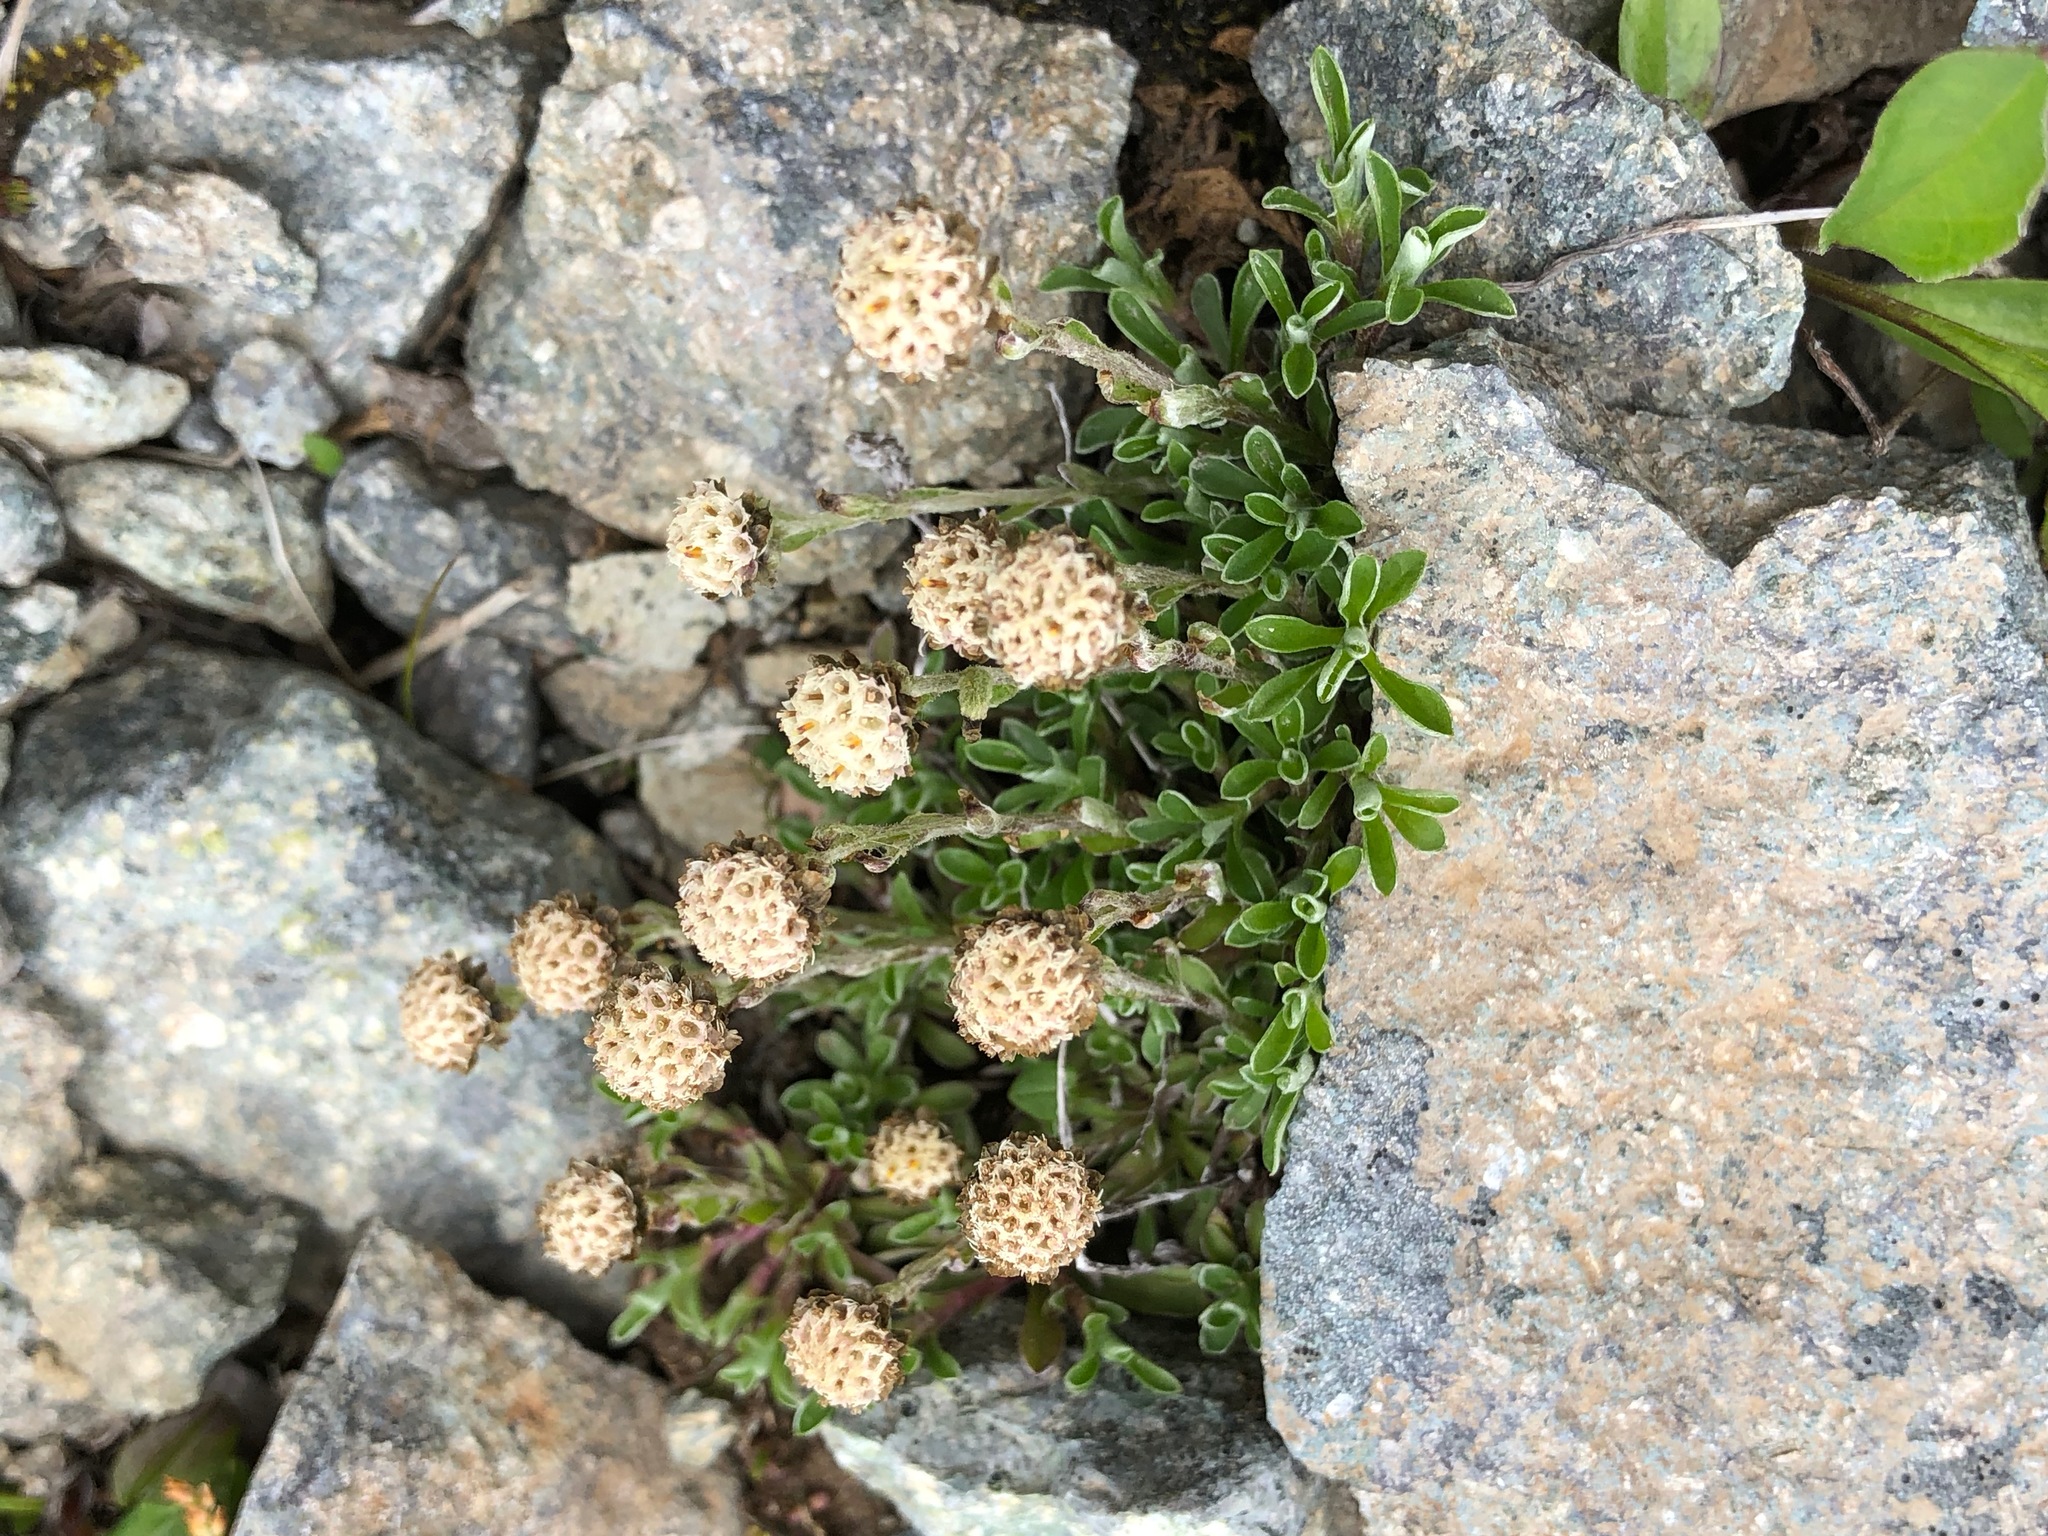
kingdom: Plantae
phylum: Tracheophyta
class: Magnoliopsida
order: Asterales
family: Asteraceae
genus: Antennaria
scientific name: Antennaria monocephala
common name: Pygmy pussytoes
